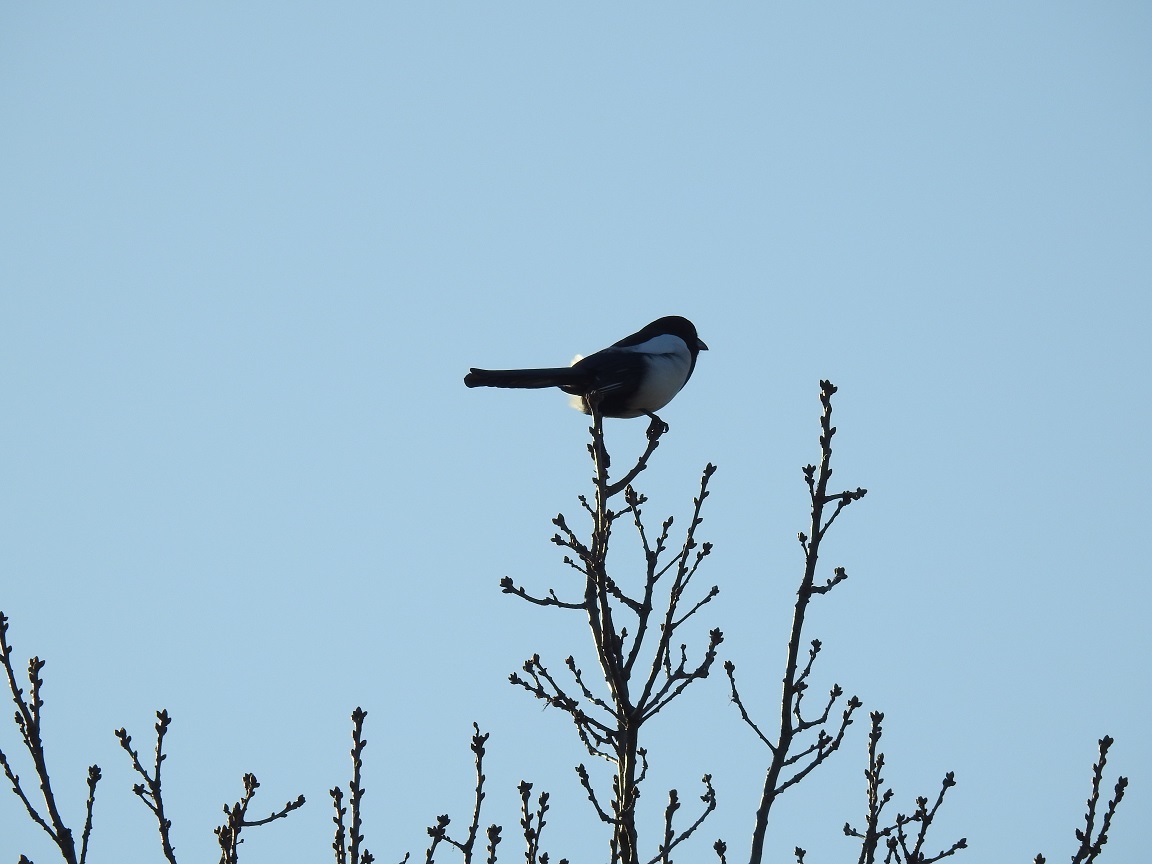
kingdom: Animalia
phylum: Chordata
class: Aves
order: Passeriformes
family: Corvidae
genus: Pica
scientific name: Pica pica
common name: Eurasian magpie
